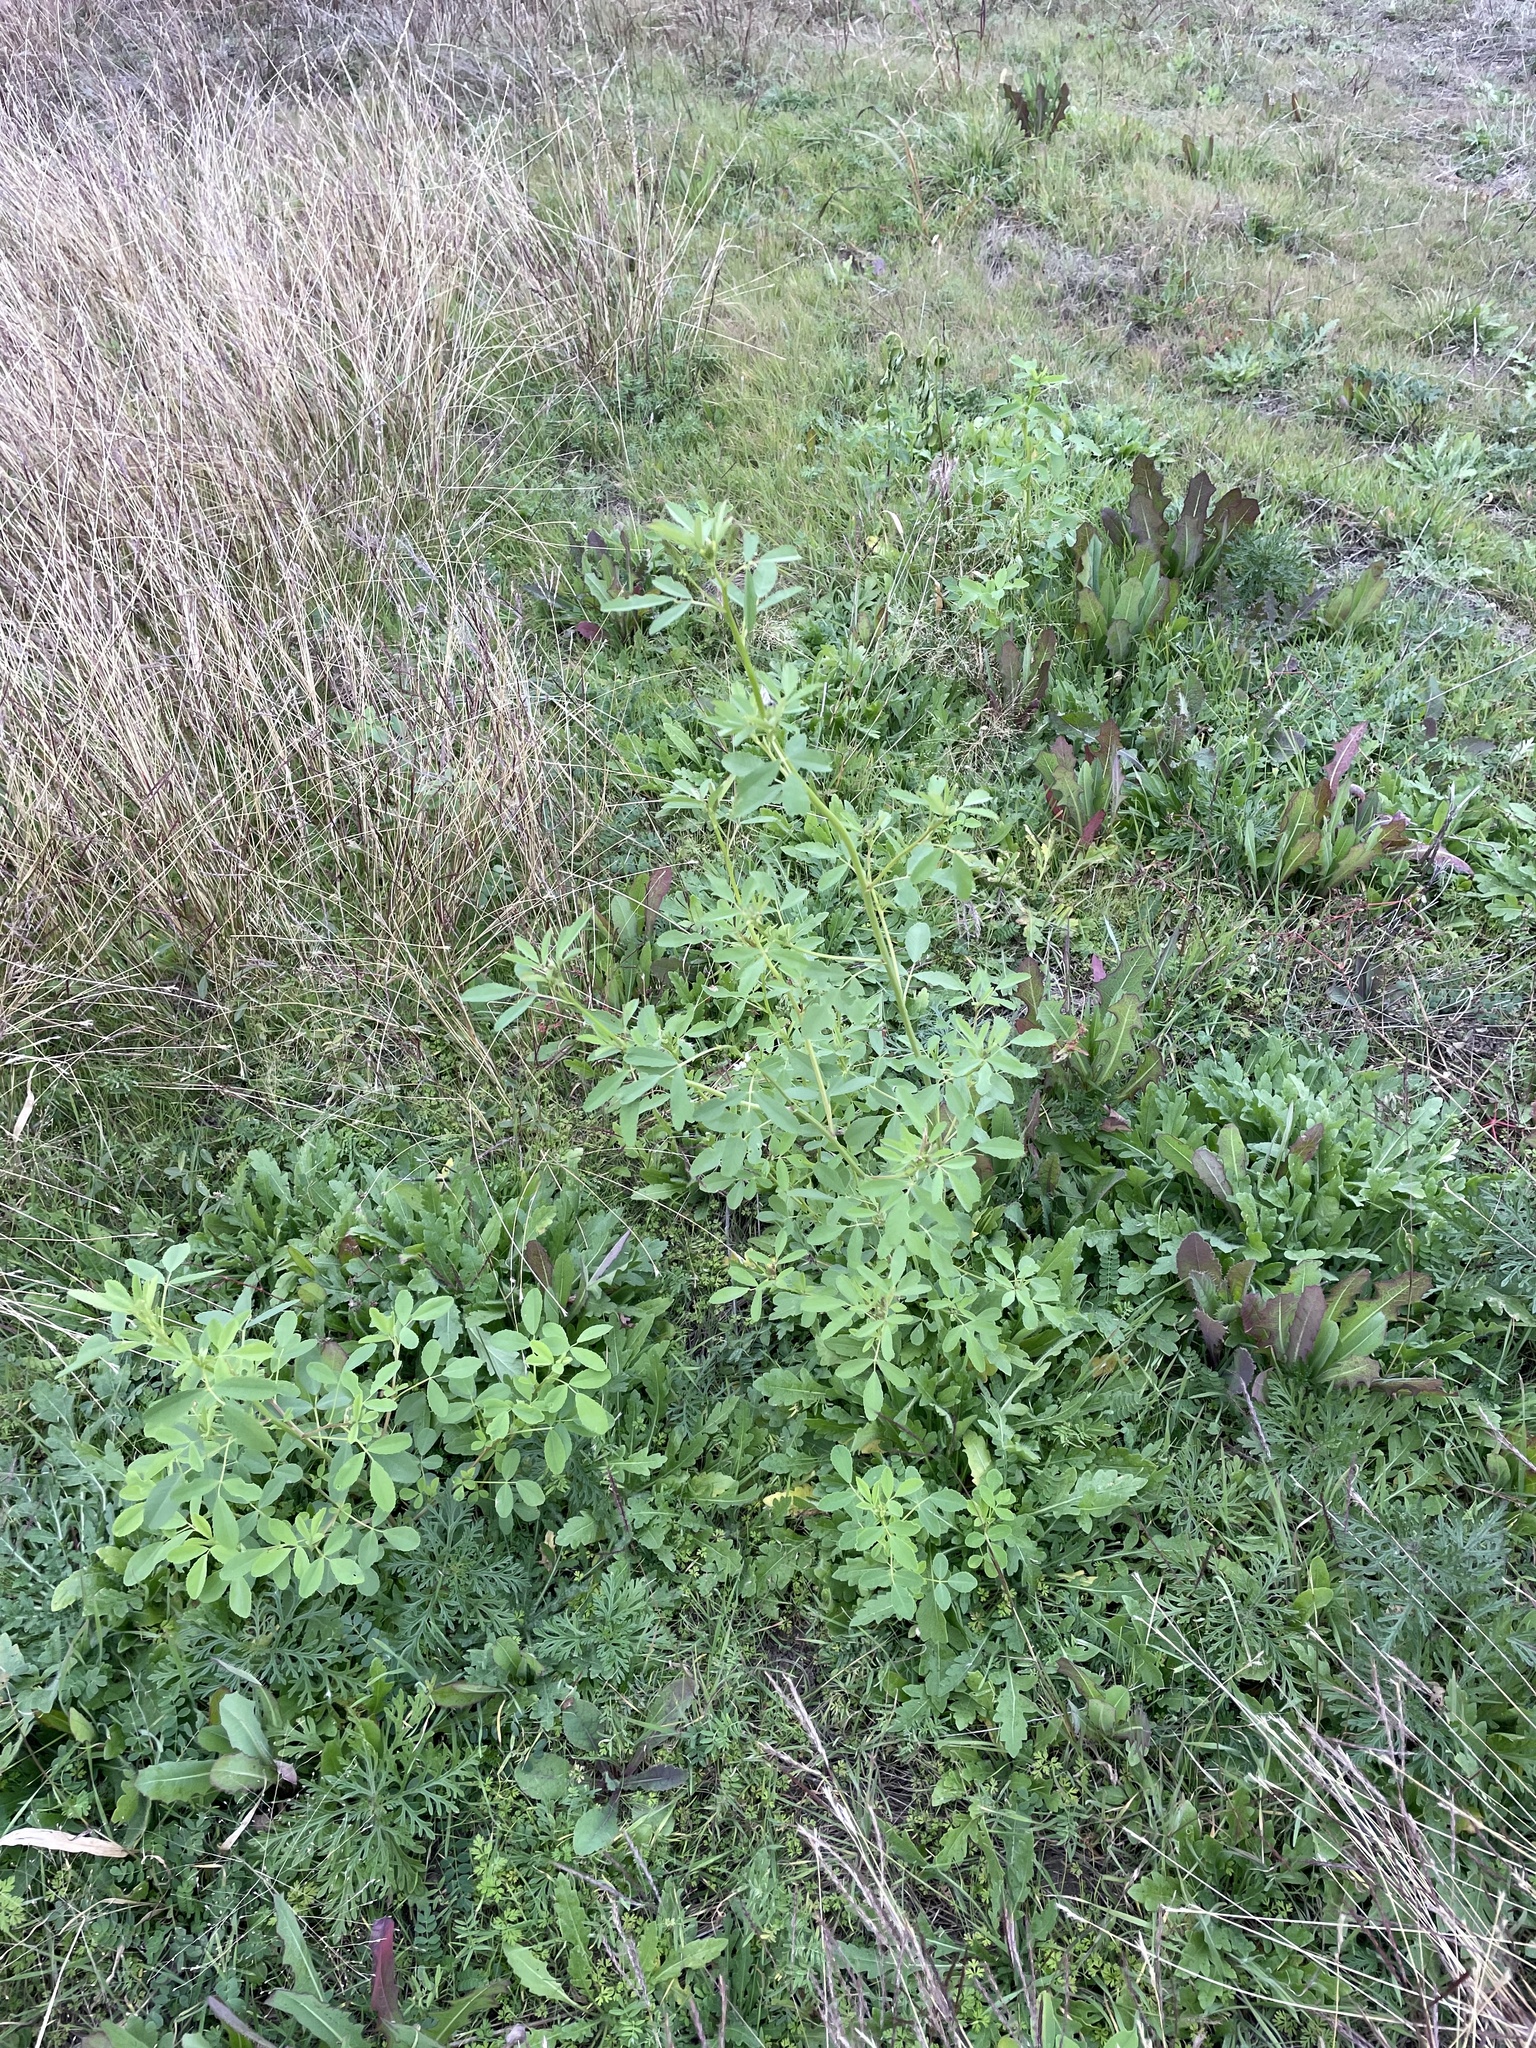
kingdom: Plantae
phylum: Tracheophyta
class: Magnoliopsida
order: Fabales
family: Fabaceae
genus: Melilotus
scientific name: Melilotus albus
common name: White melilot
